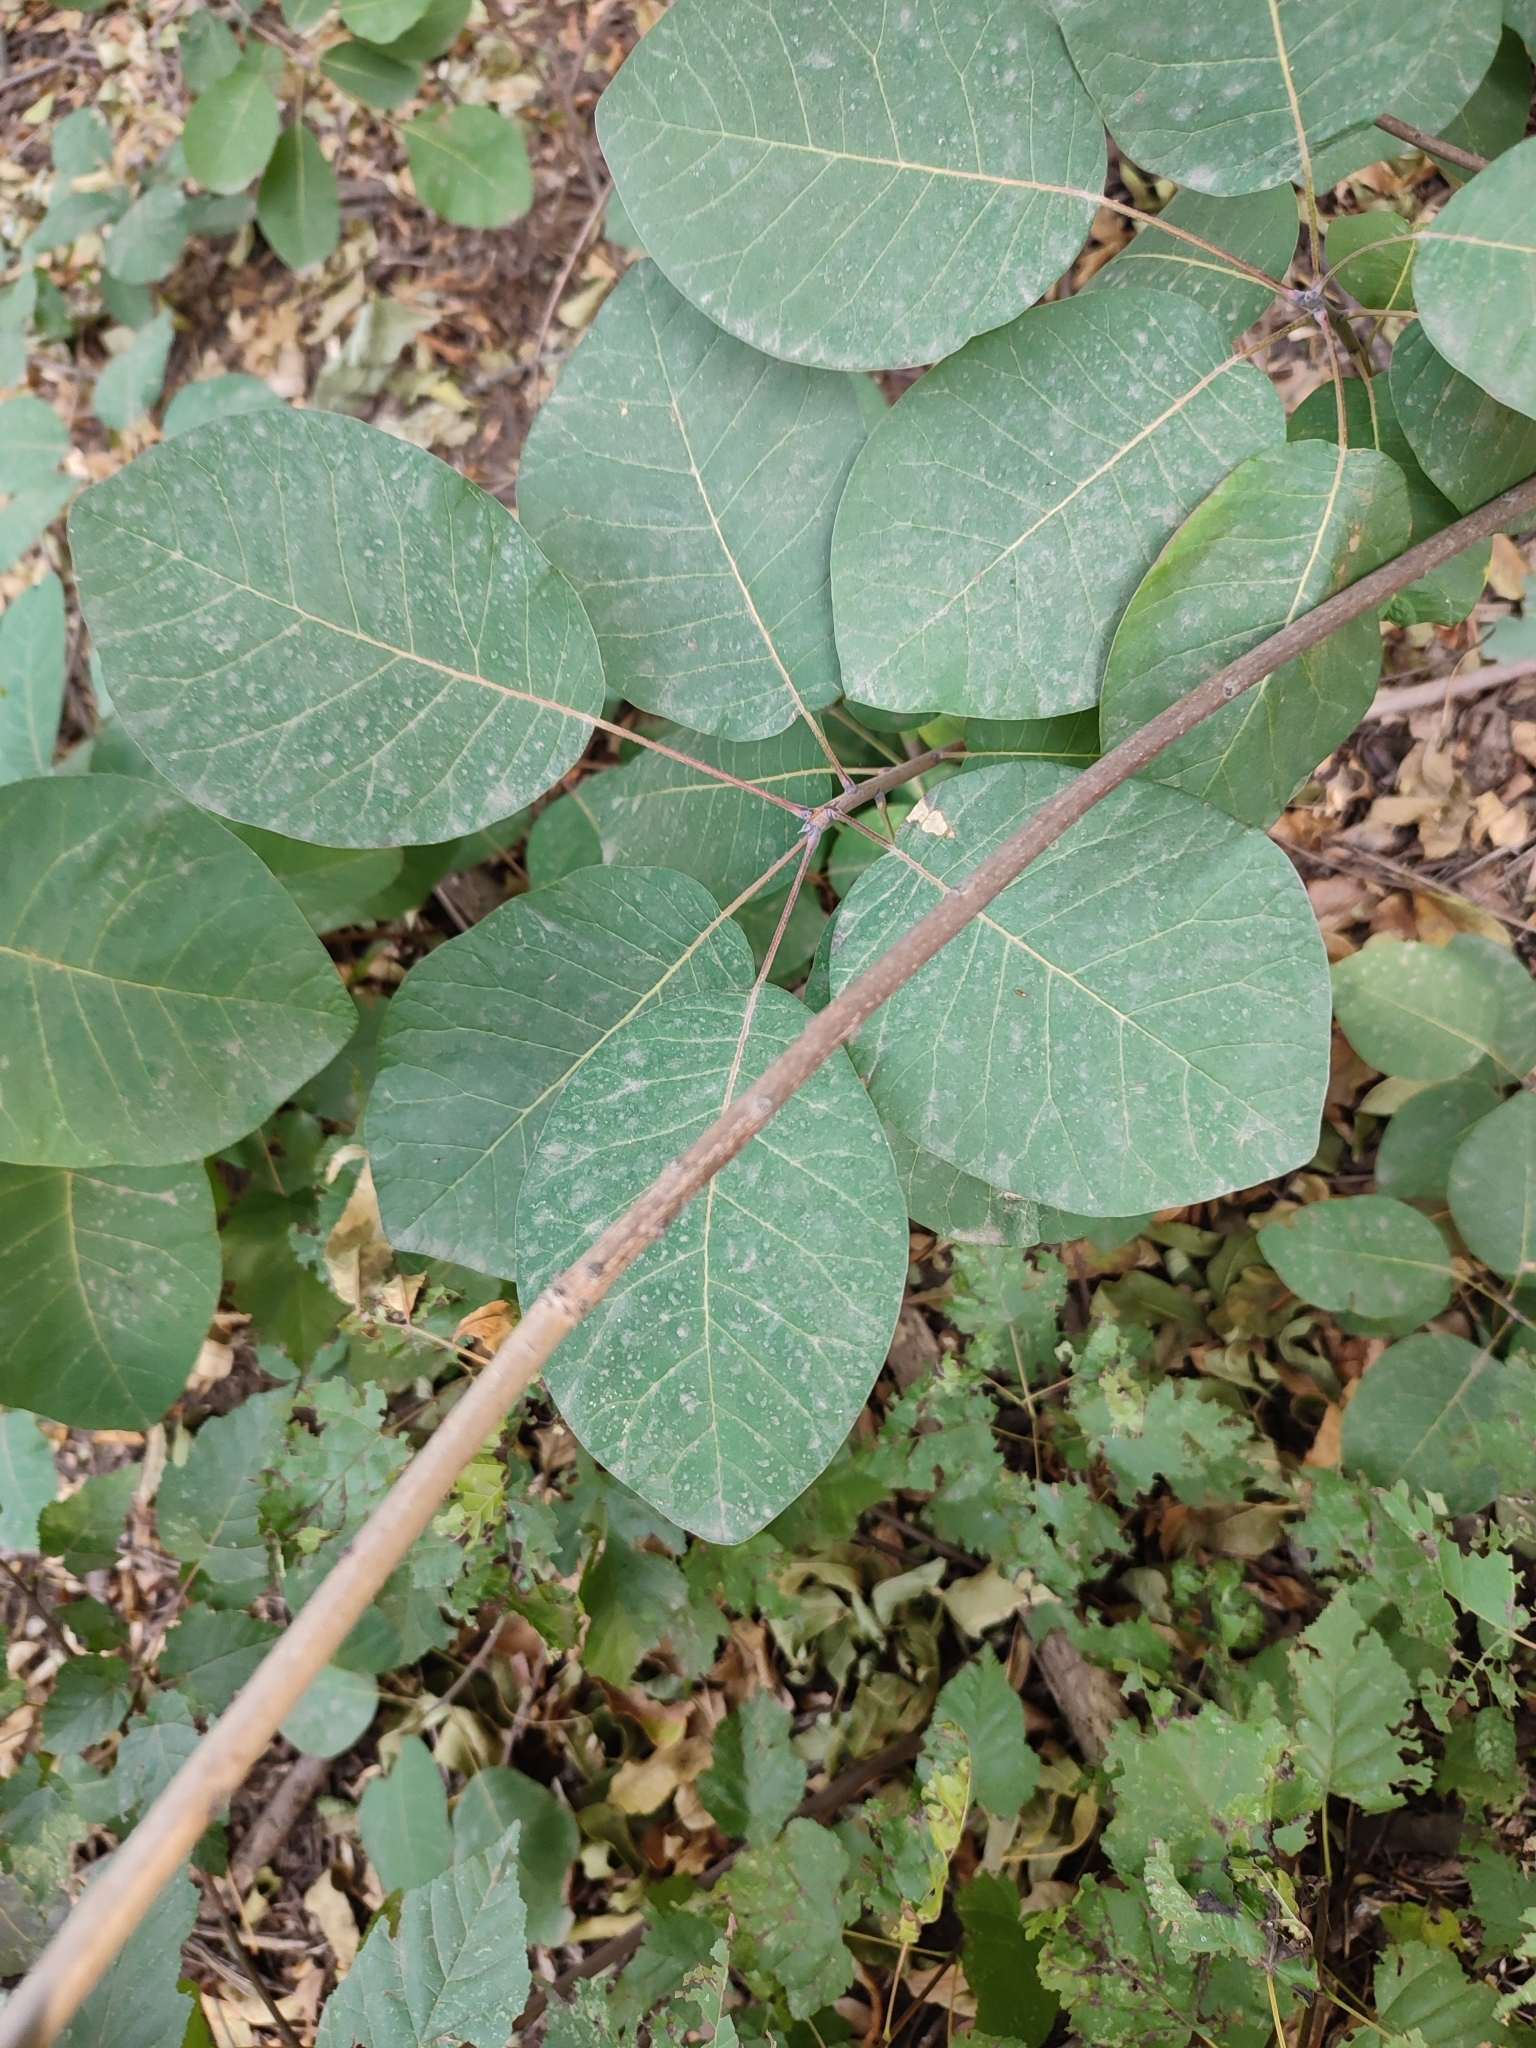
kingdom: Plantae
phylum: Tracheophyta
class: Magnoliopsida
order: Sapindales
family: Anacardiaceae
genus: Cotinus
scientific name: Cotinus coggygria
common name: Smoke-tree
